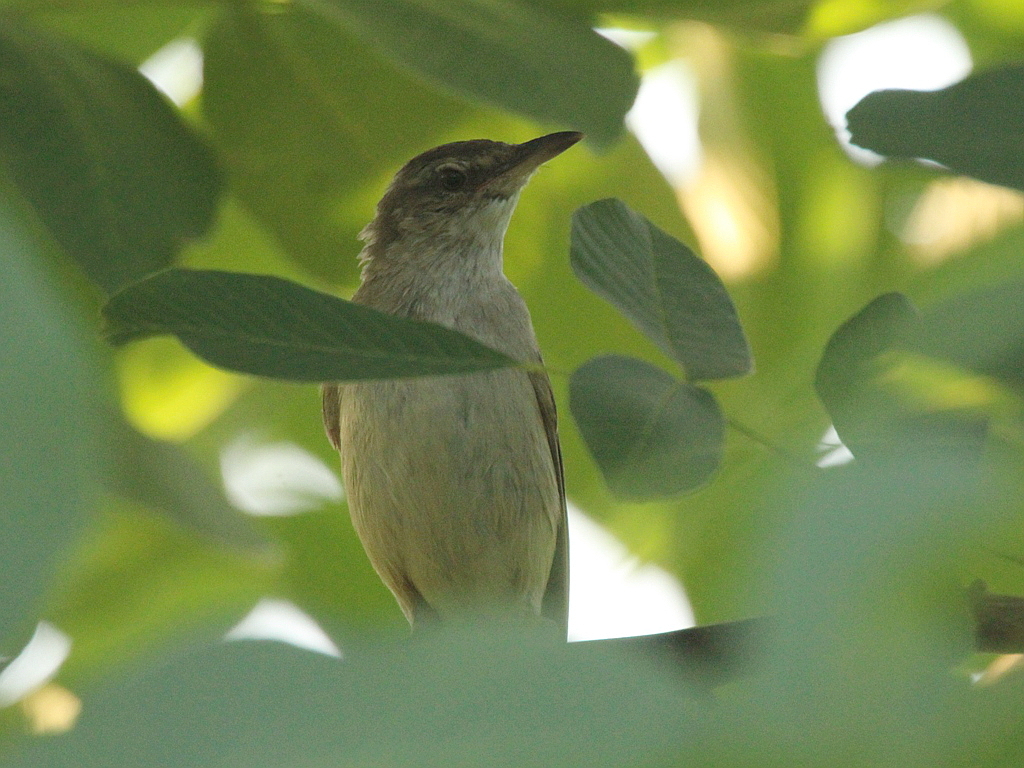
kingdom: Animalia
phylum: Chordata
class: Aves
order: Passeriformes
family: Acrocephalidae
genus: Acrocephalus
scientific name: Acrocephalus arundinaceus
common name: Great reed warbler
